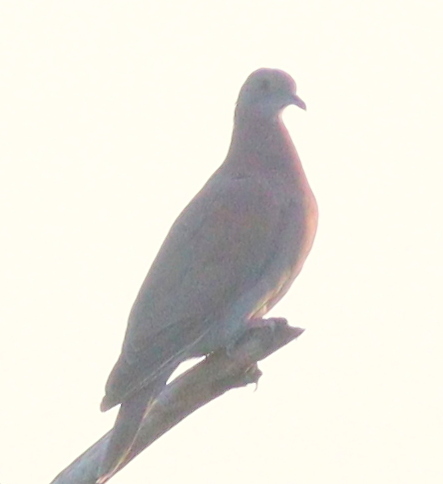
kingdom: Animalia
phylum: Chordata
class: Aves
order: Columbiformes
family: Columbidae
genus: Patagioenas
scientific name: Patagioenas cayennensis
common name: Pale-vented pigeon
